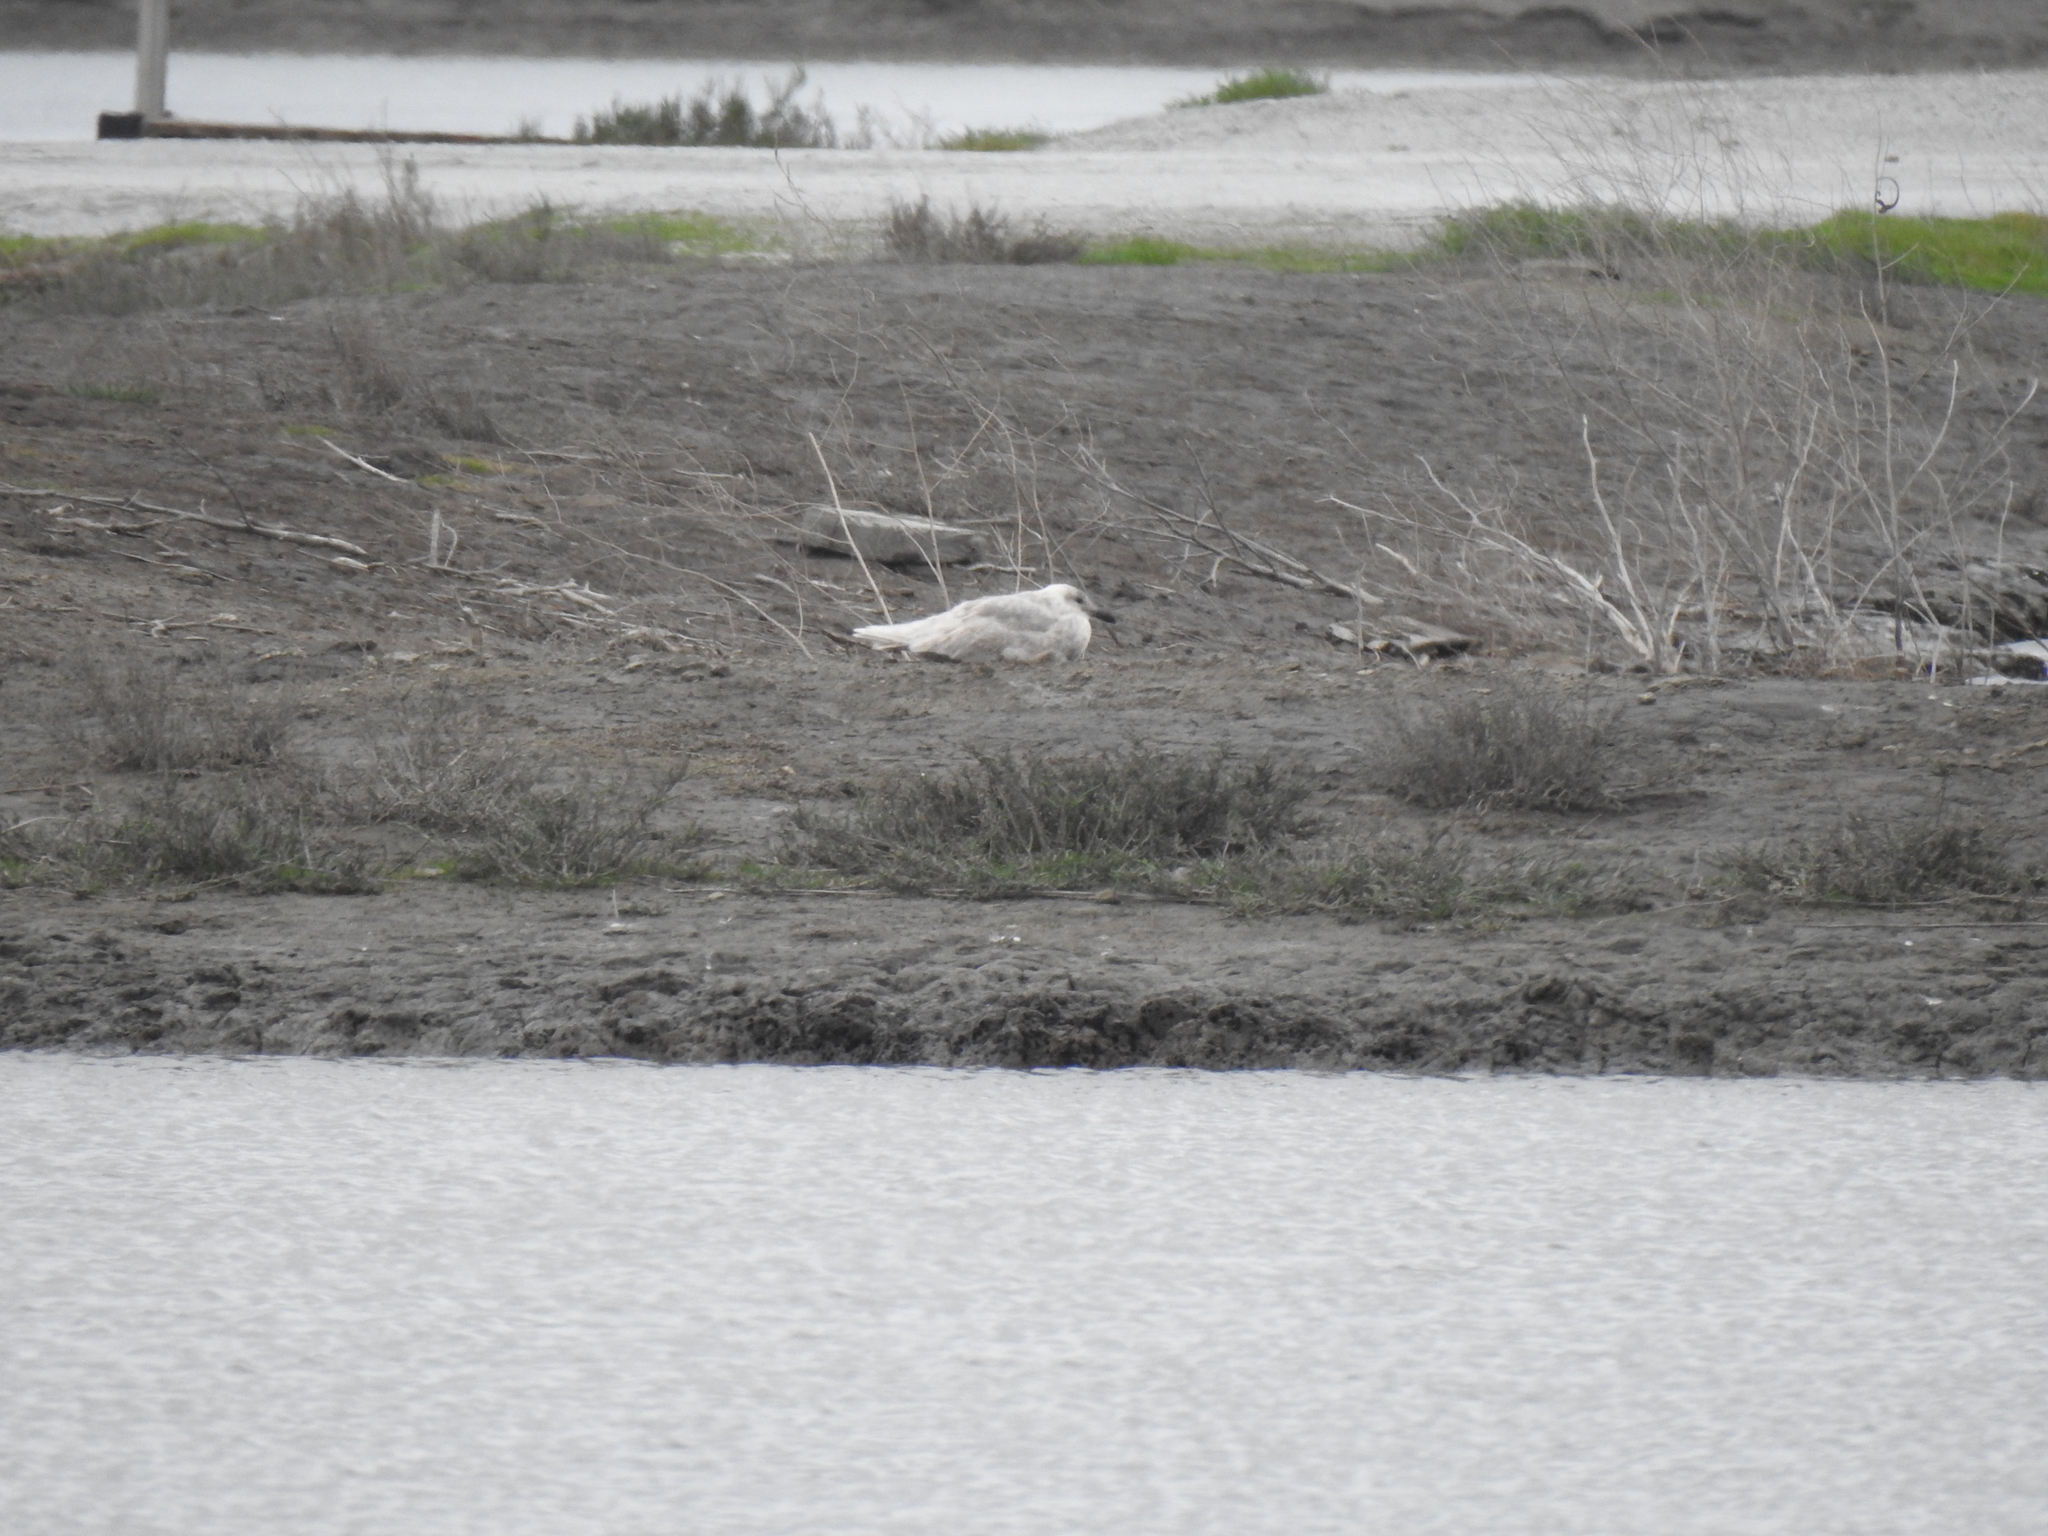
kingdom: Animalia
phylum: Chordata
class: Aves
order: Charadriiformes
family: Laridae
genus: Larus
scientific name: Larus glaucescens
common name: Glaucous-winged gull
